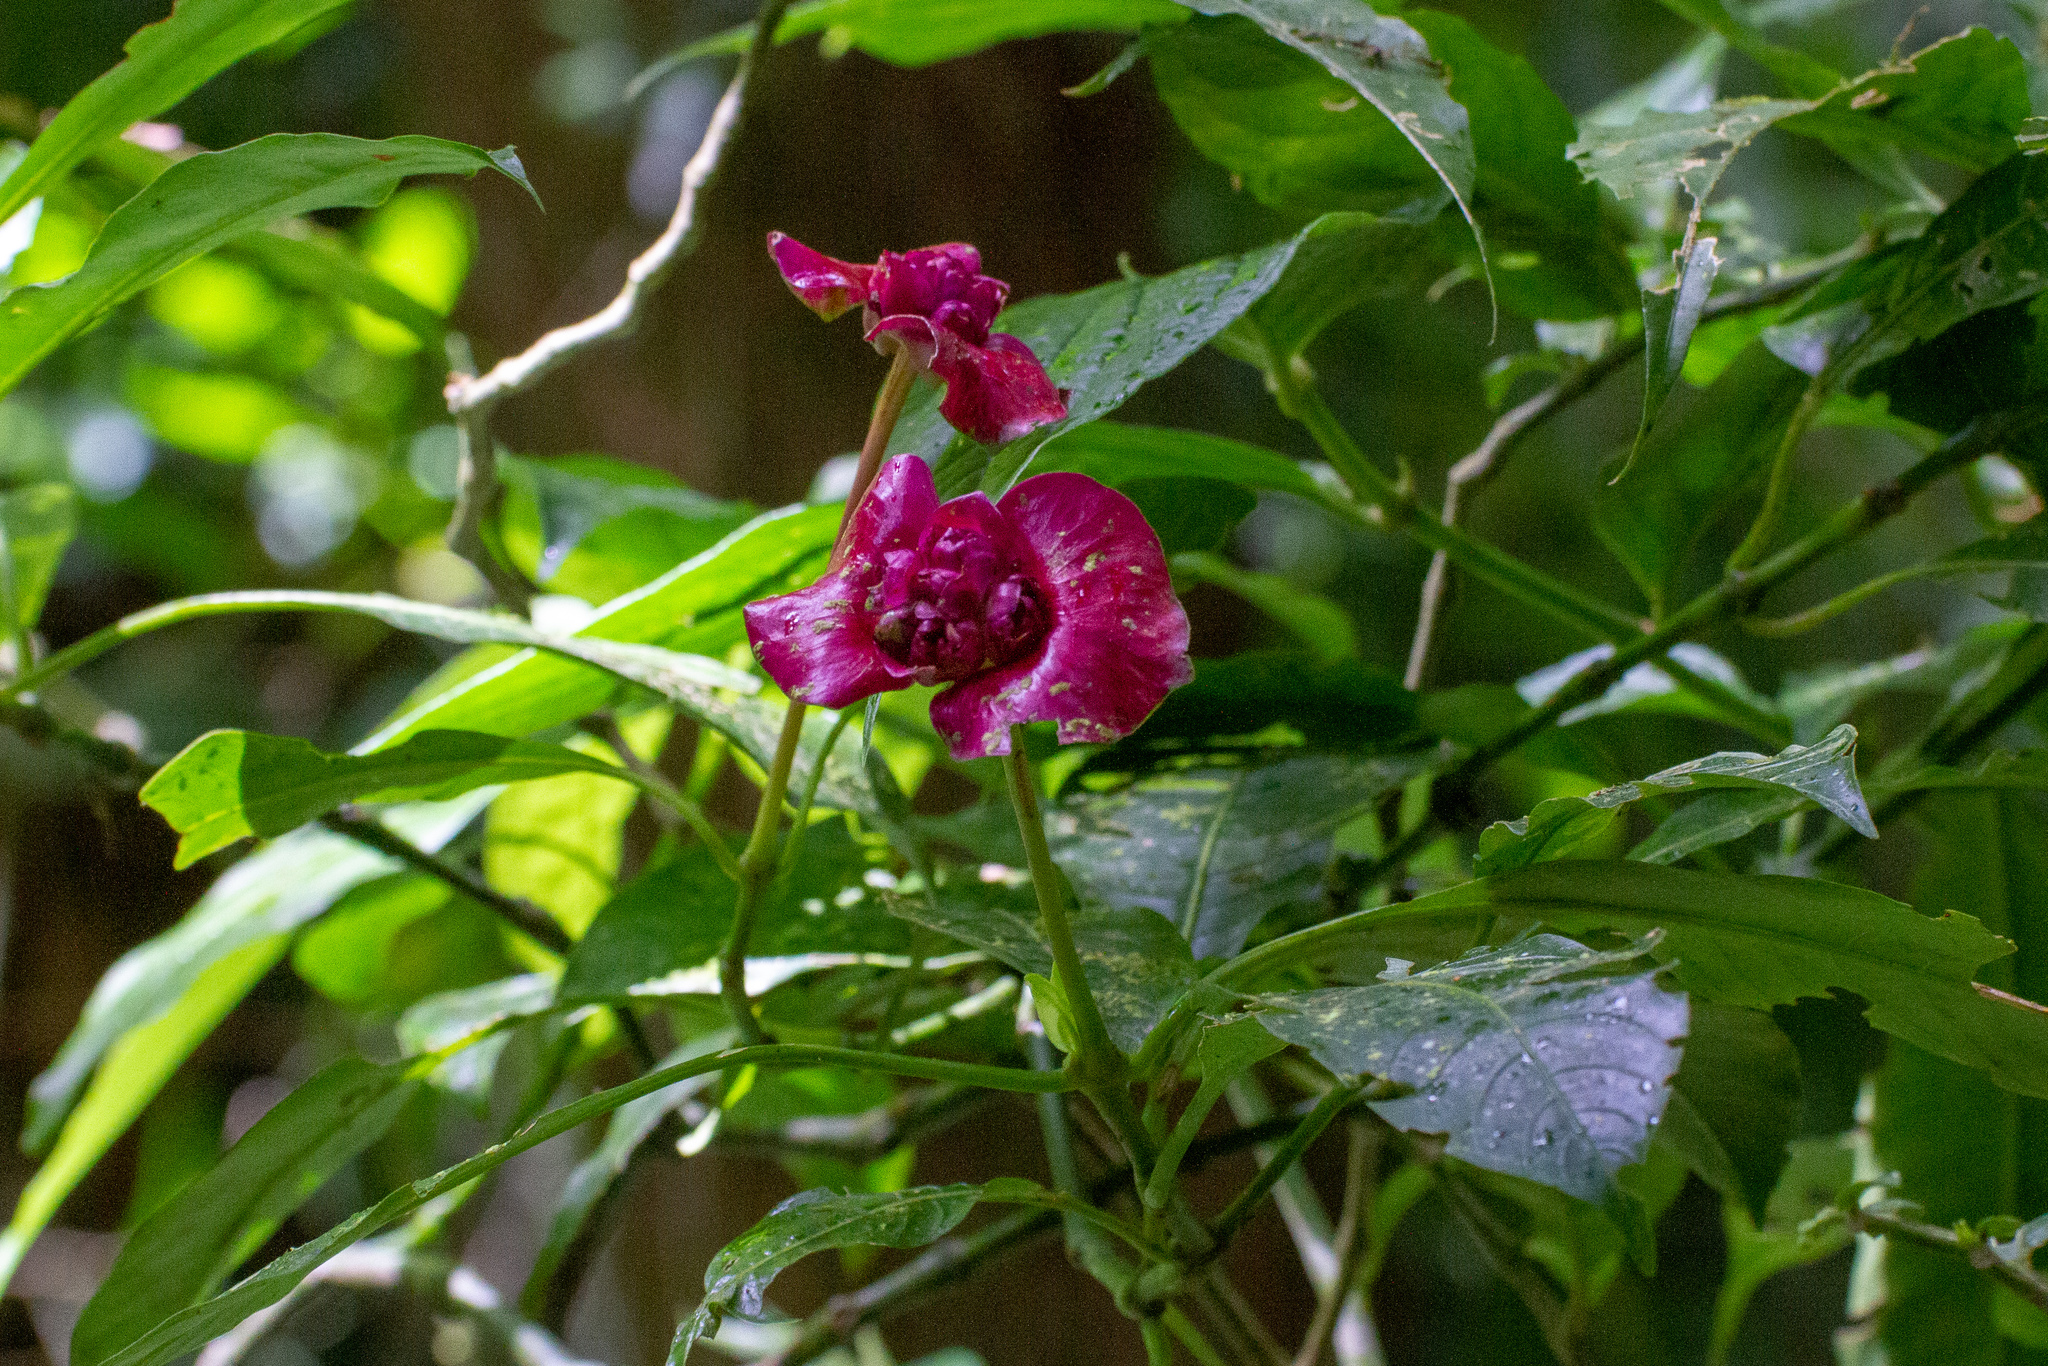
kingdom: Plantae
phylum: Tracheophyta
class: Magnoliopsida
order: Gentianales
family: Rubiaceae
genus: Palicourea
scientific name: Palicourea elata
